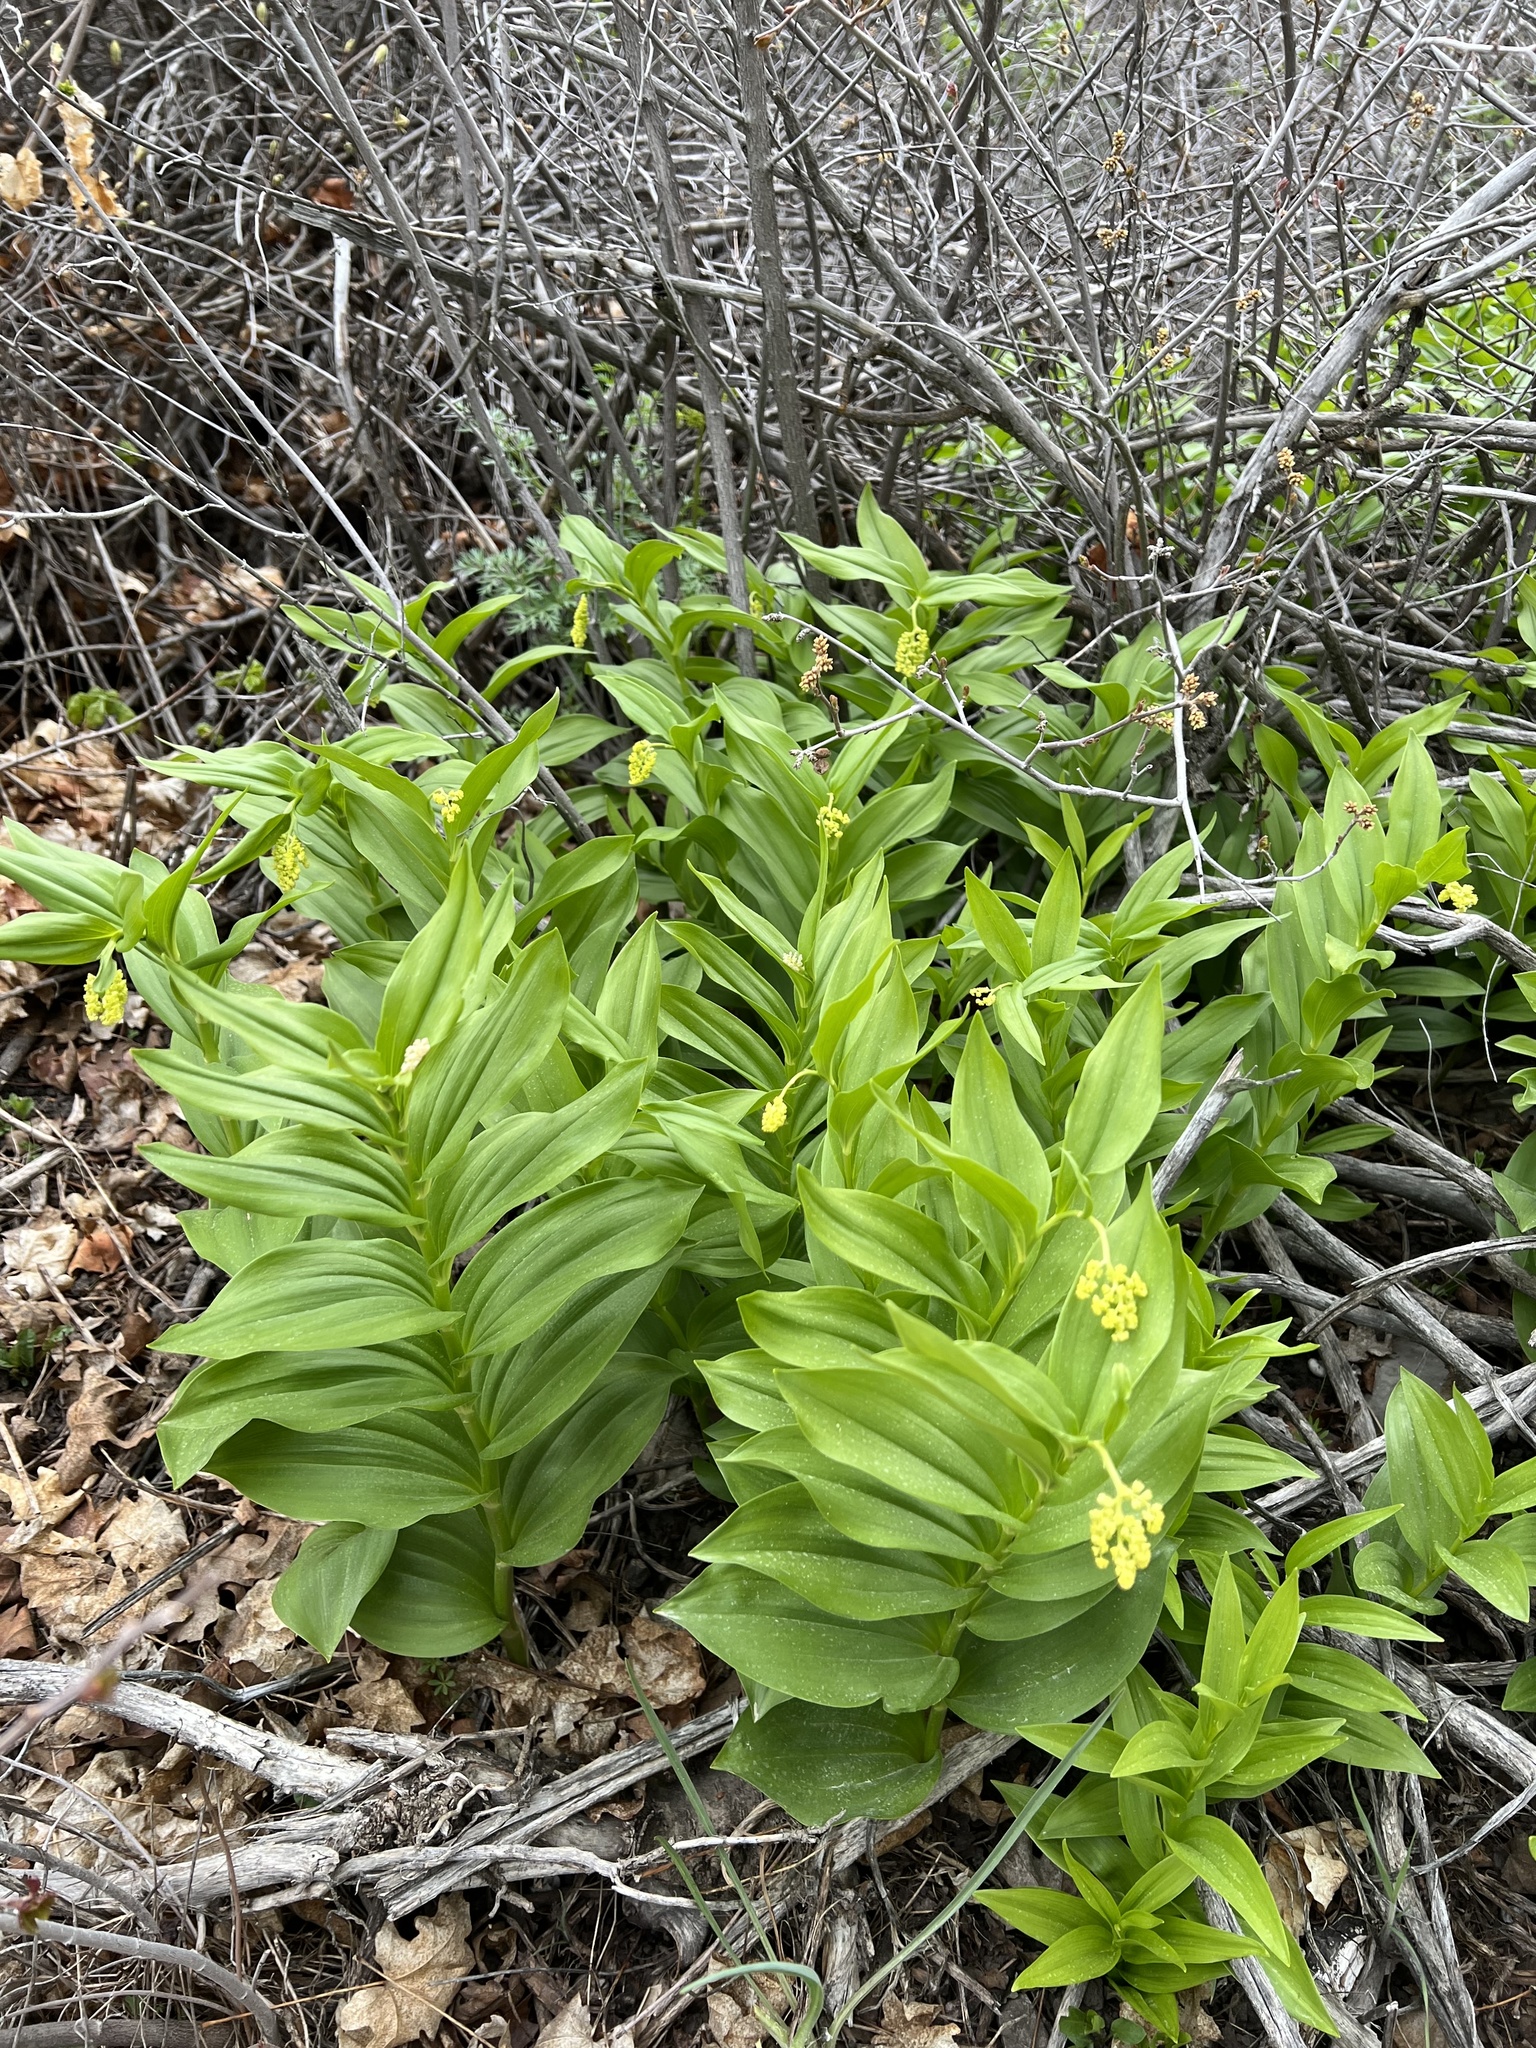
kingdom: Plantae
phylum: Tracheophyta
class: Liliopsida
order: Asparagales
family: Asparagaceae
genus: Maianthemum
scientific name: Maianthemum racemosum
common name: False spikenard
